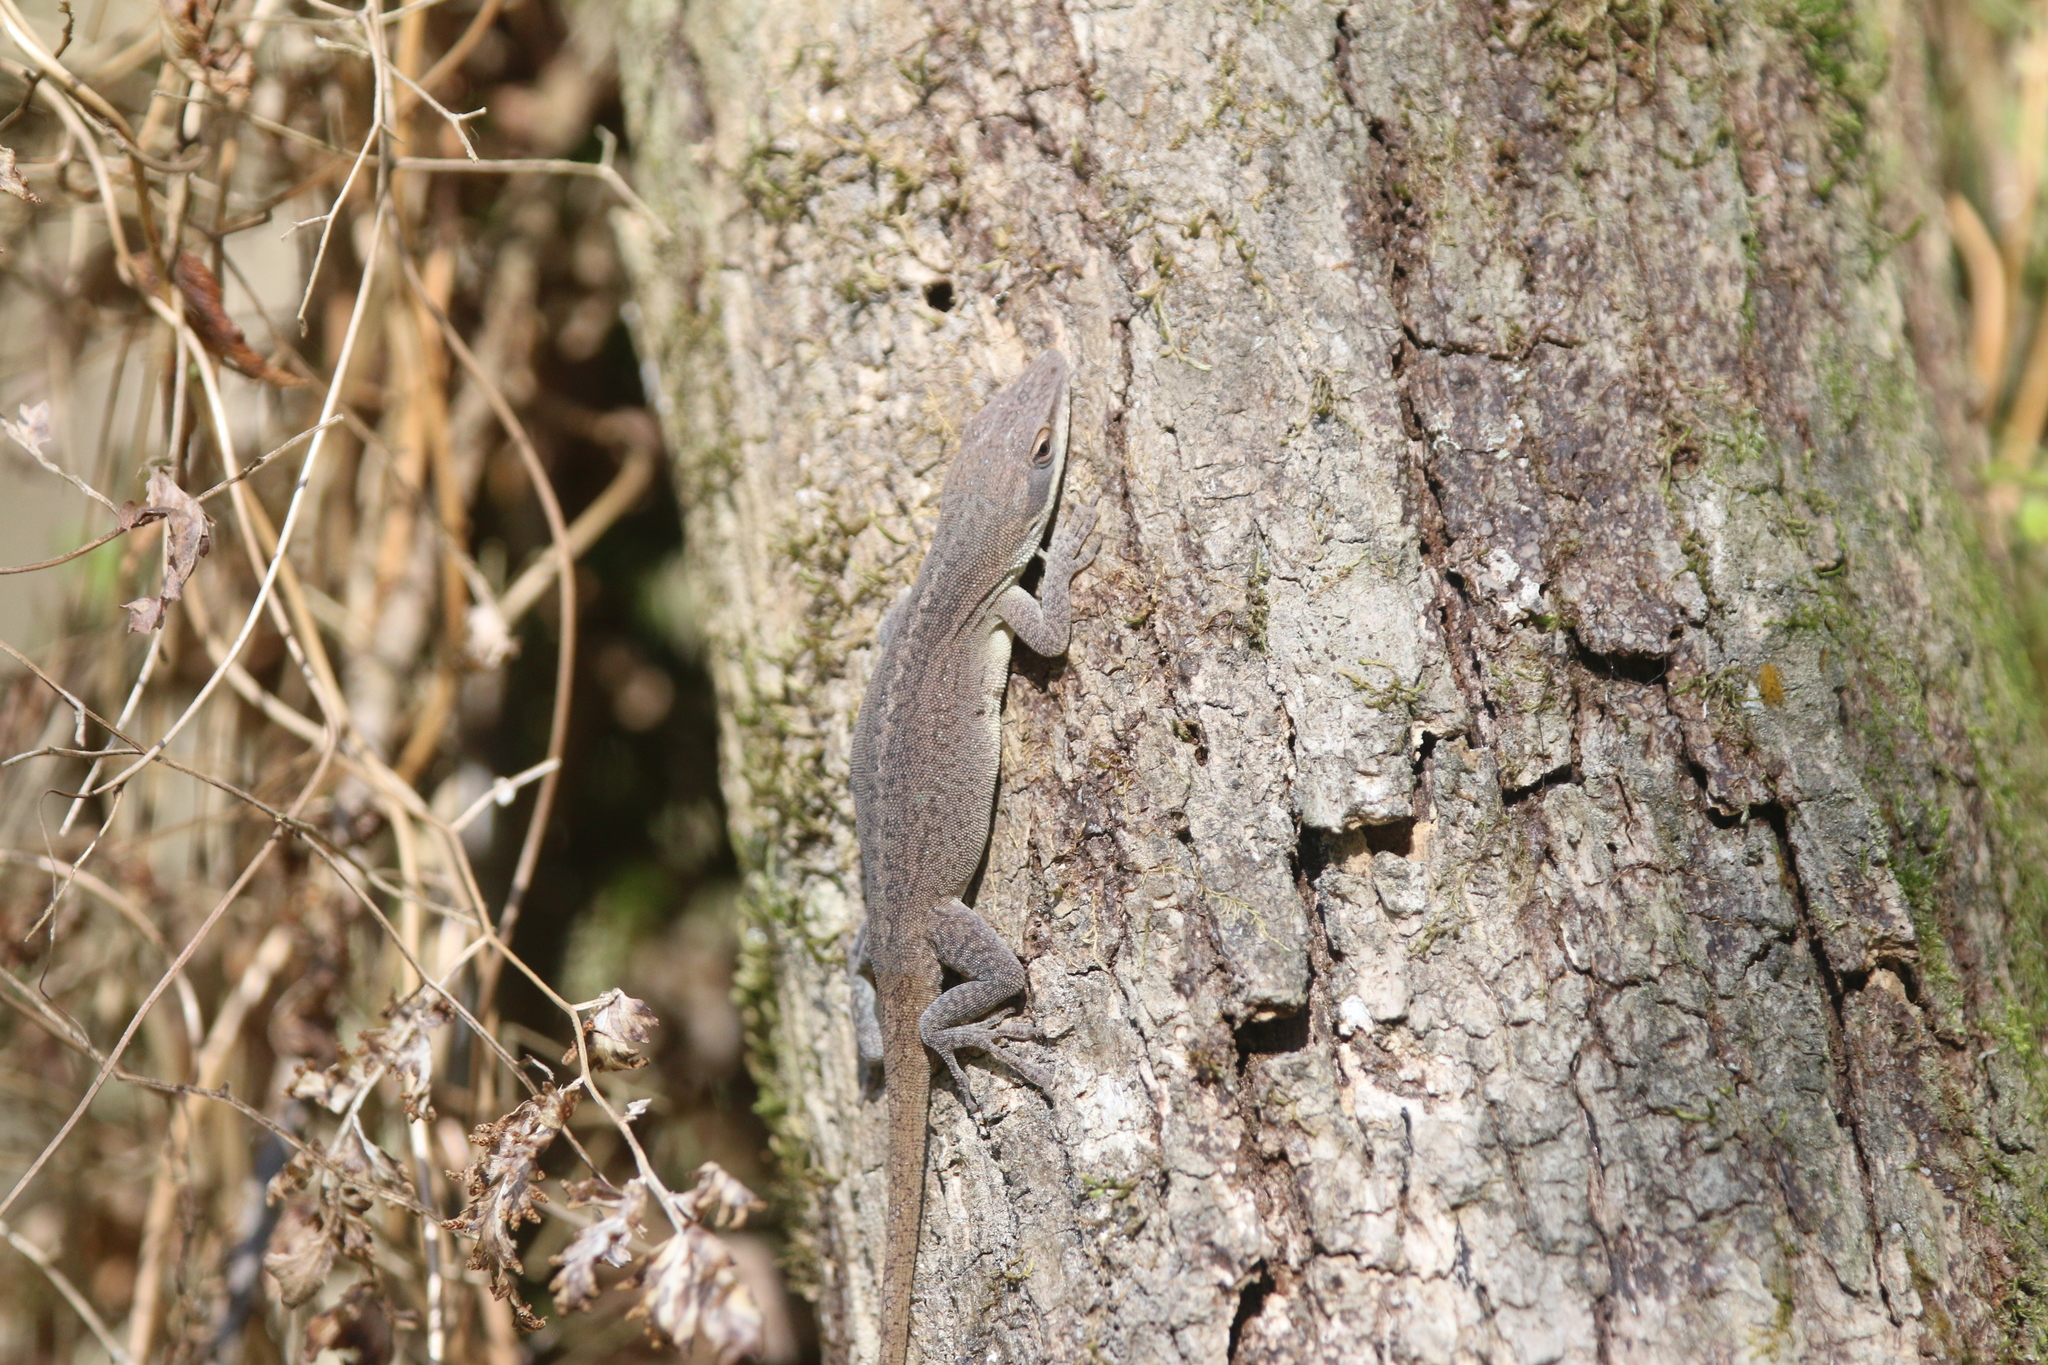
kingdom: Animalia
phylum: Chordata
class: Squamata
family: Dactyloidae
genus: Anolis
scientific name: Anolis carolinensis
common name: Green anole
